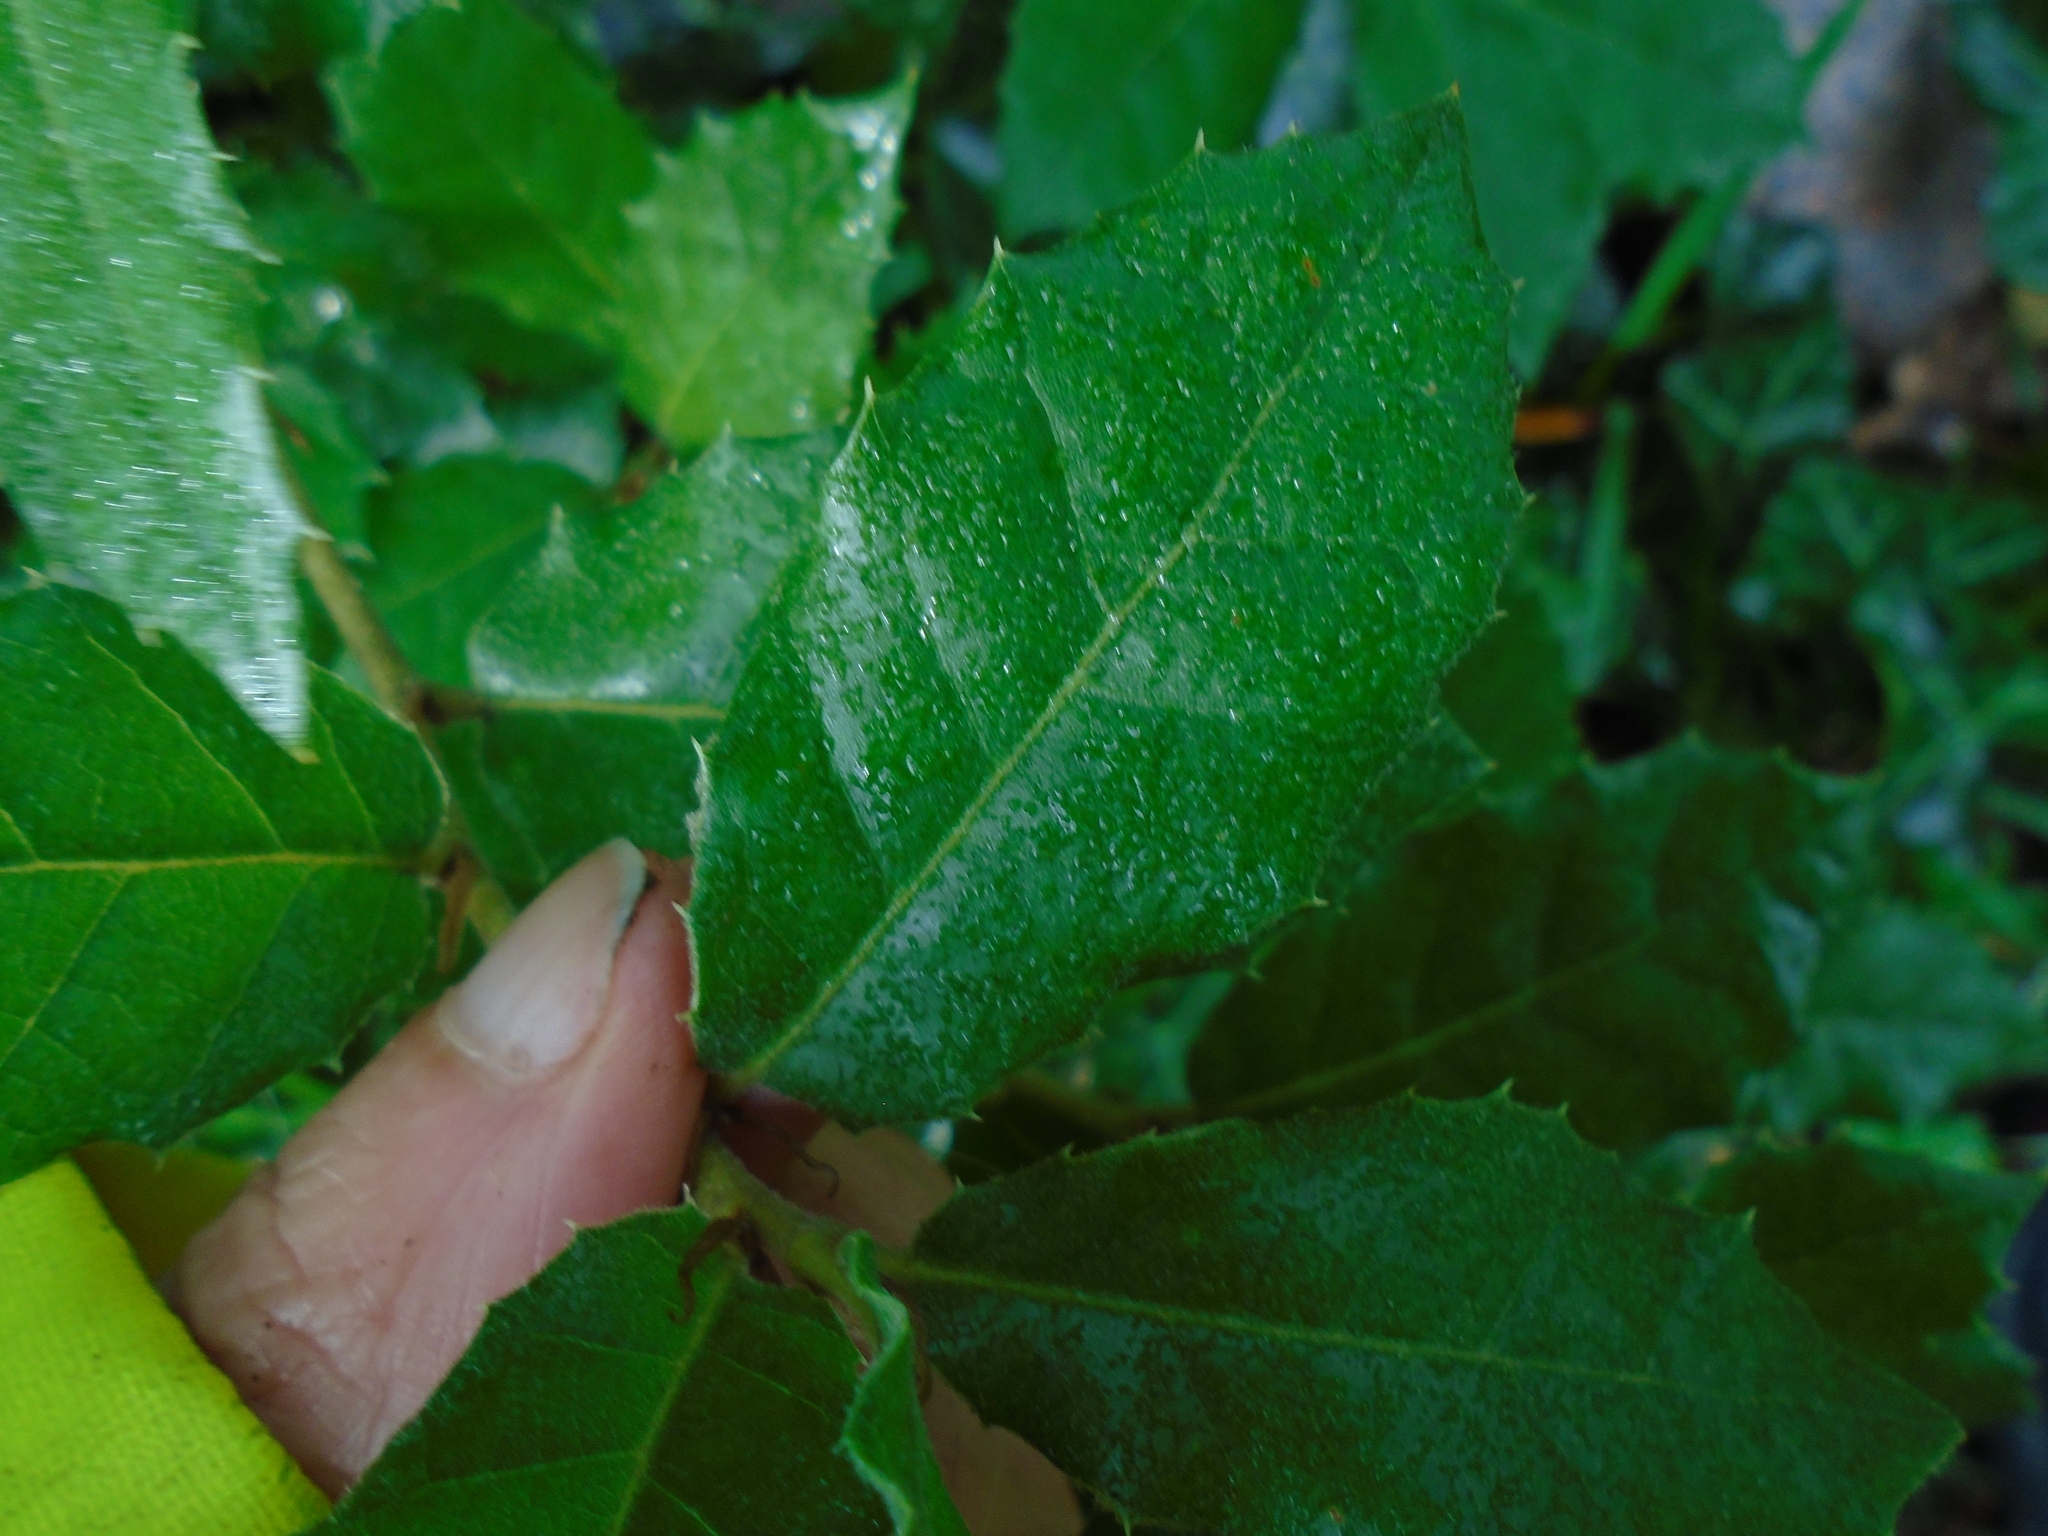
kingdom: Plantae
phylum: Tracheophyta
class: Magnoliopsida
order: Fagales
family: Fagaceae
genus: Quercus
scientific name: Quercus ilex
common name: Evergreen oak
